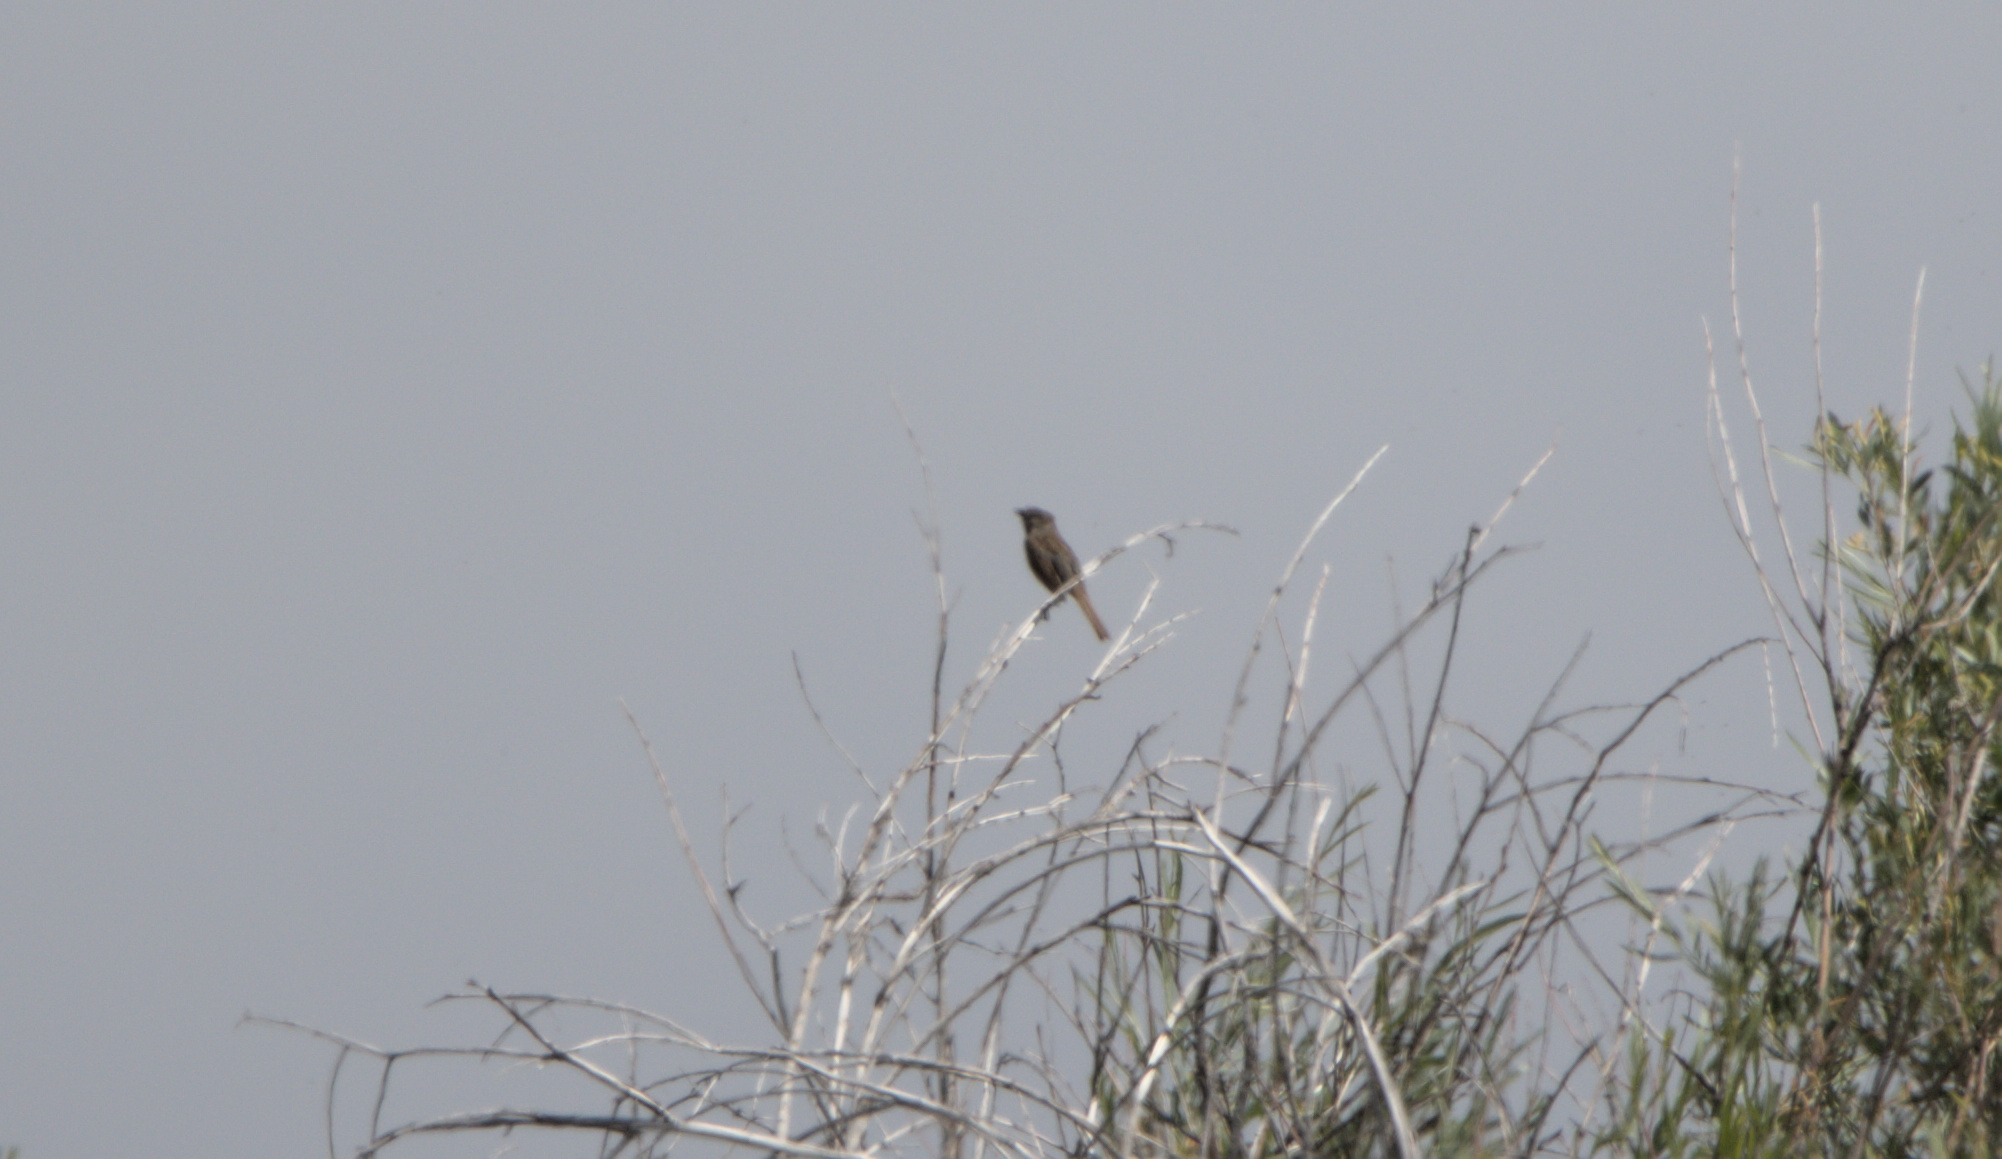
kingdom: Animalia
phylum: Chordata
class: Aves
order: Passeriformes
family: Passerellidae
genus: Melospiza
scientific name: Melospiza melodia
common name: Song sparrow
